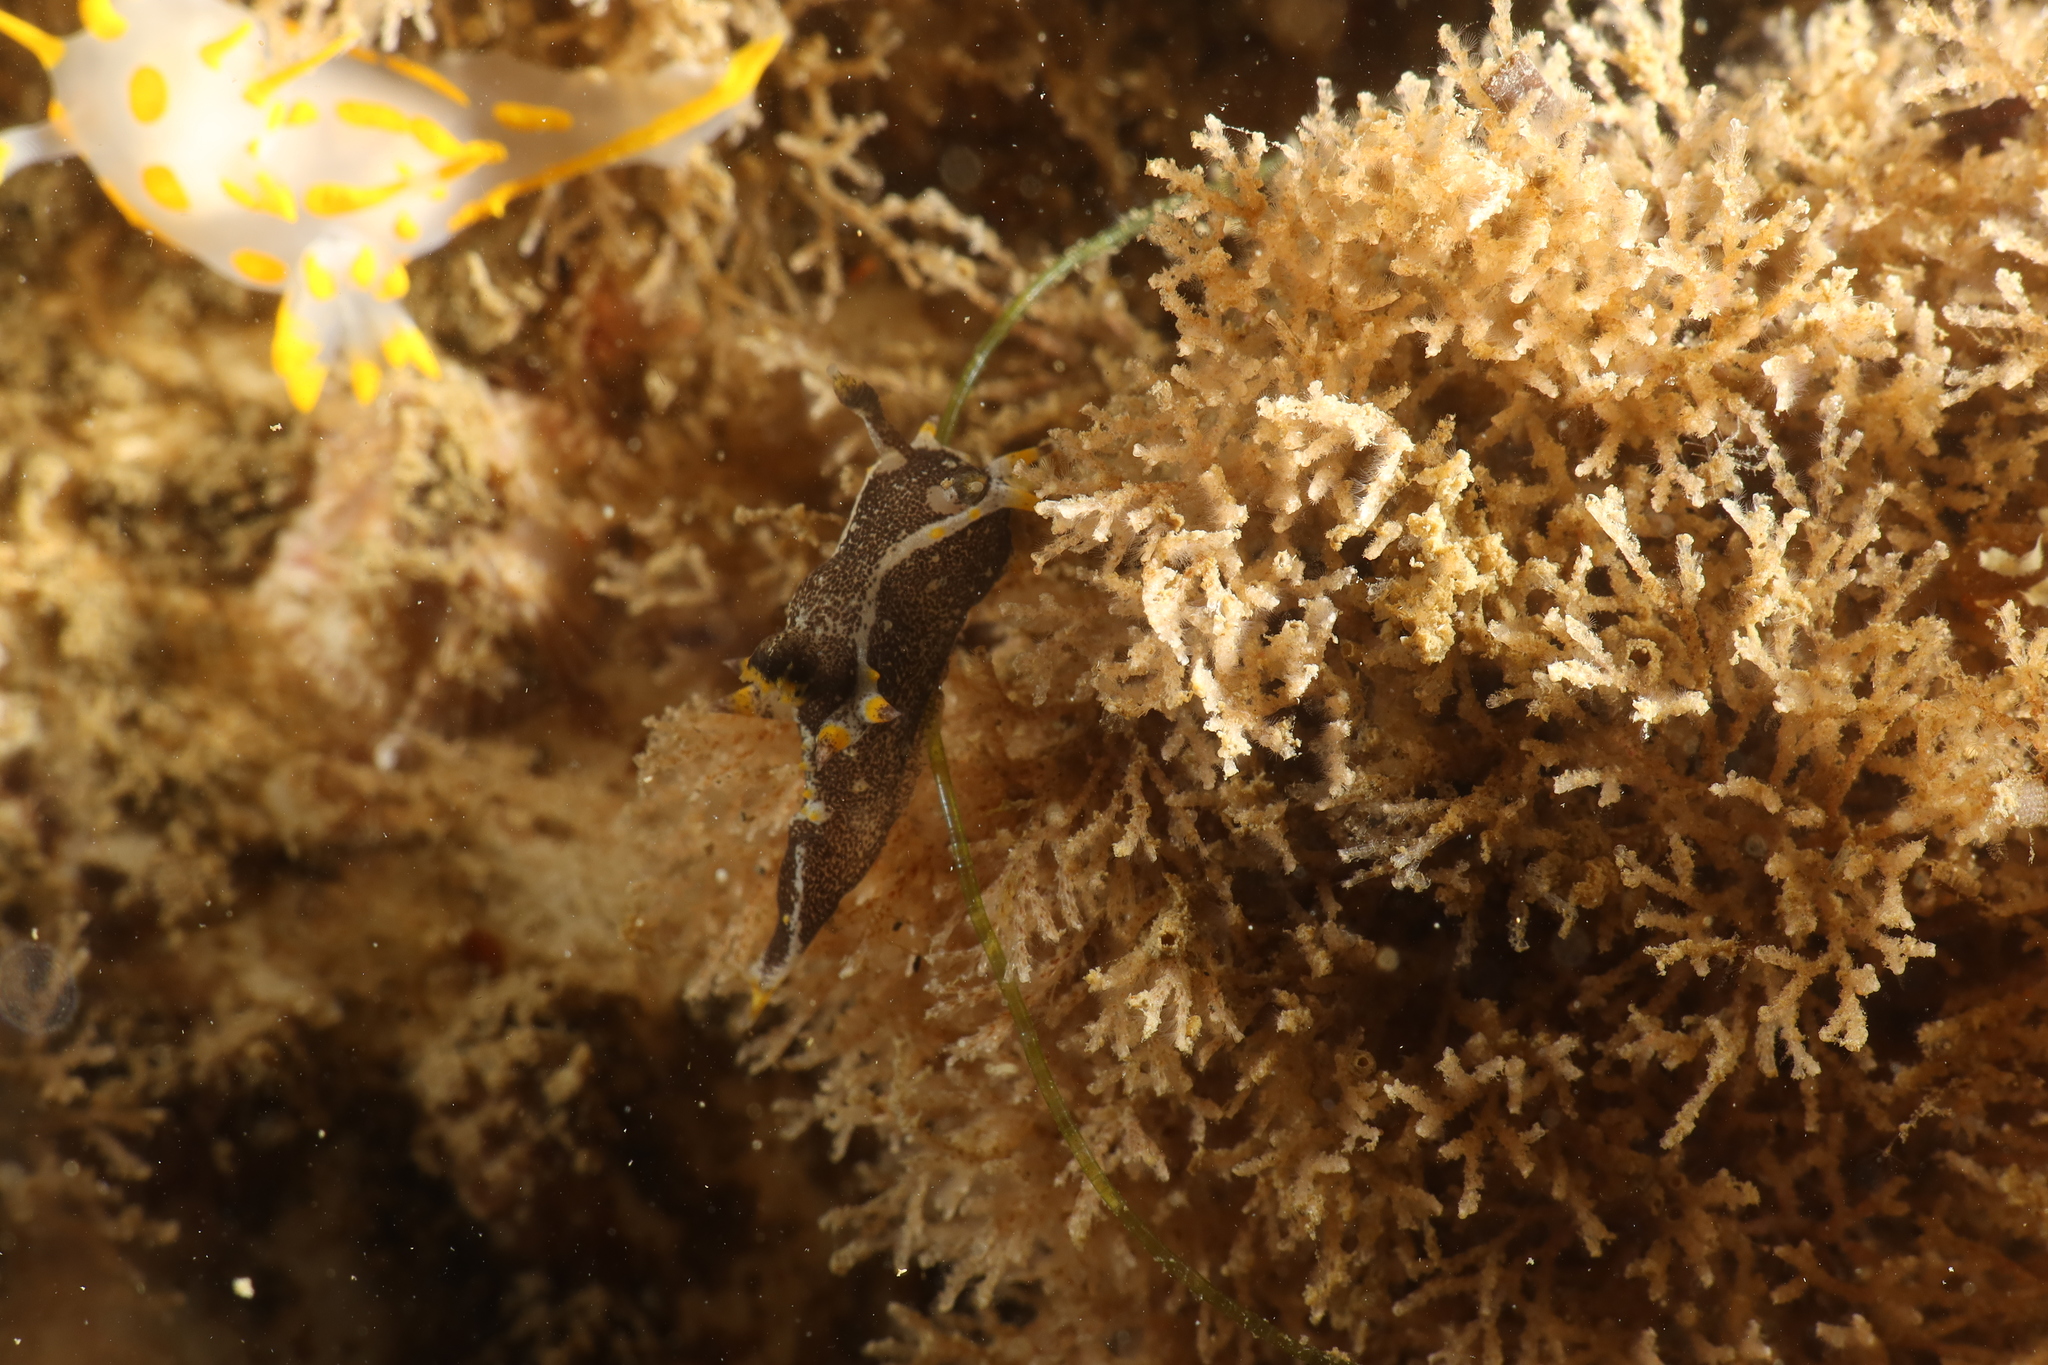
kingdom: Animalia
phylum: Mollusca
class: Gastropoda
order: Nudibranchia
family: Polyceridae
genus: Polycera
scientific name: Polycera hedgpethi
